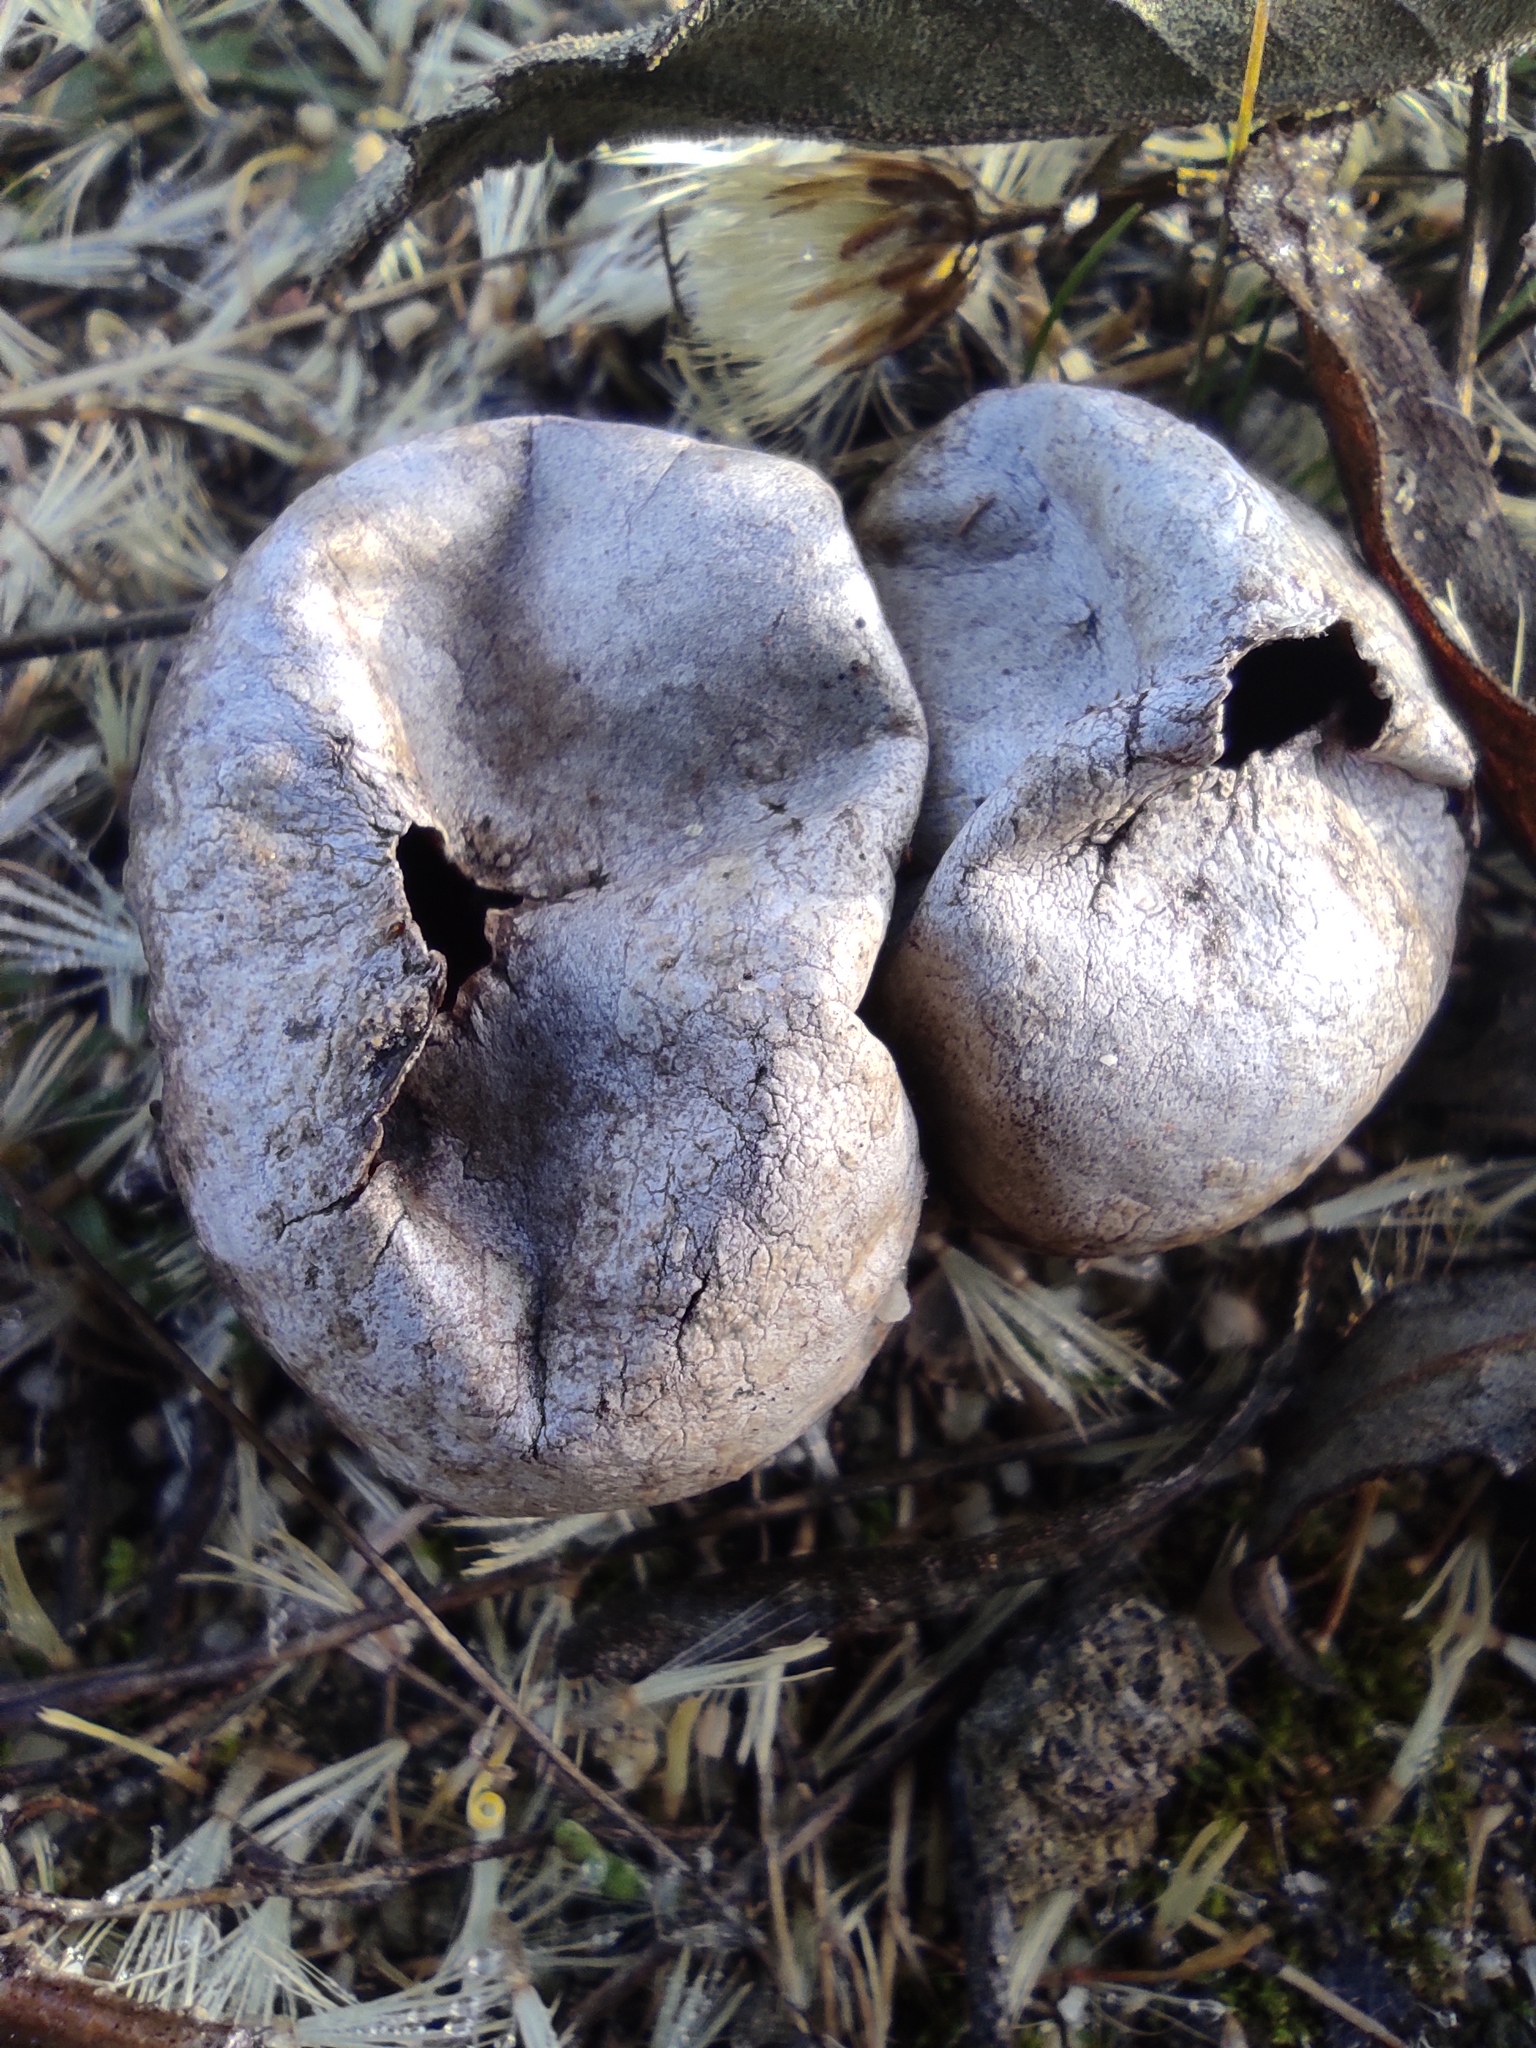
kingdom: Fungi
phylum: Basidiomycota
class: Agaricomycetes
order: Agaricales
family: Lycoperdaceae
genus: Bovista
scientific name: Bovista plumbea
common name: Grey puffball
